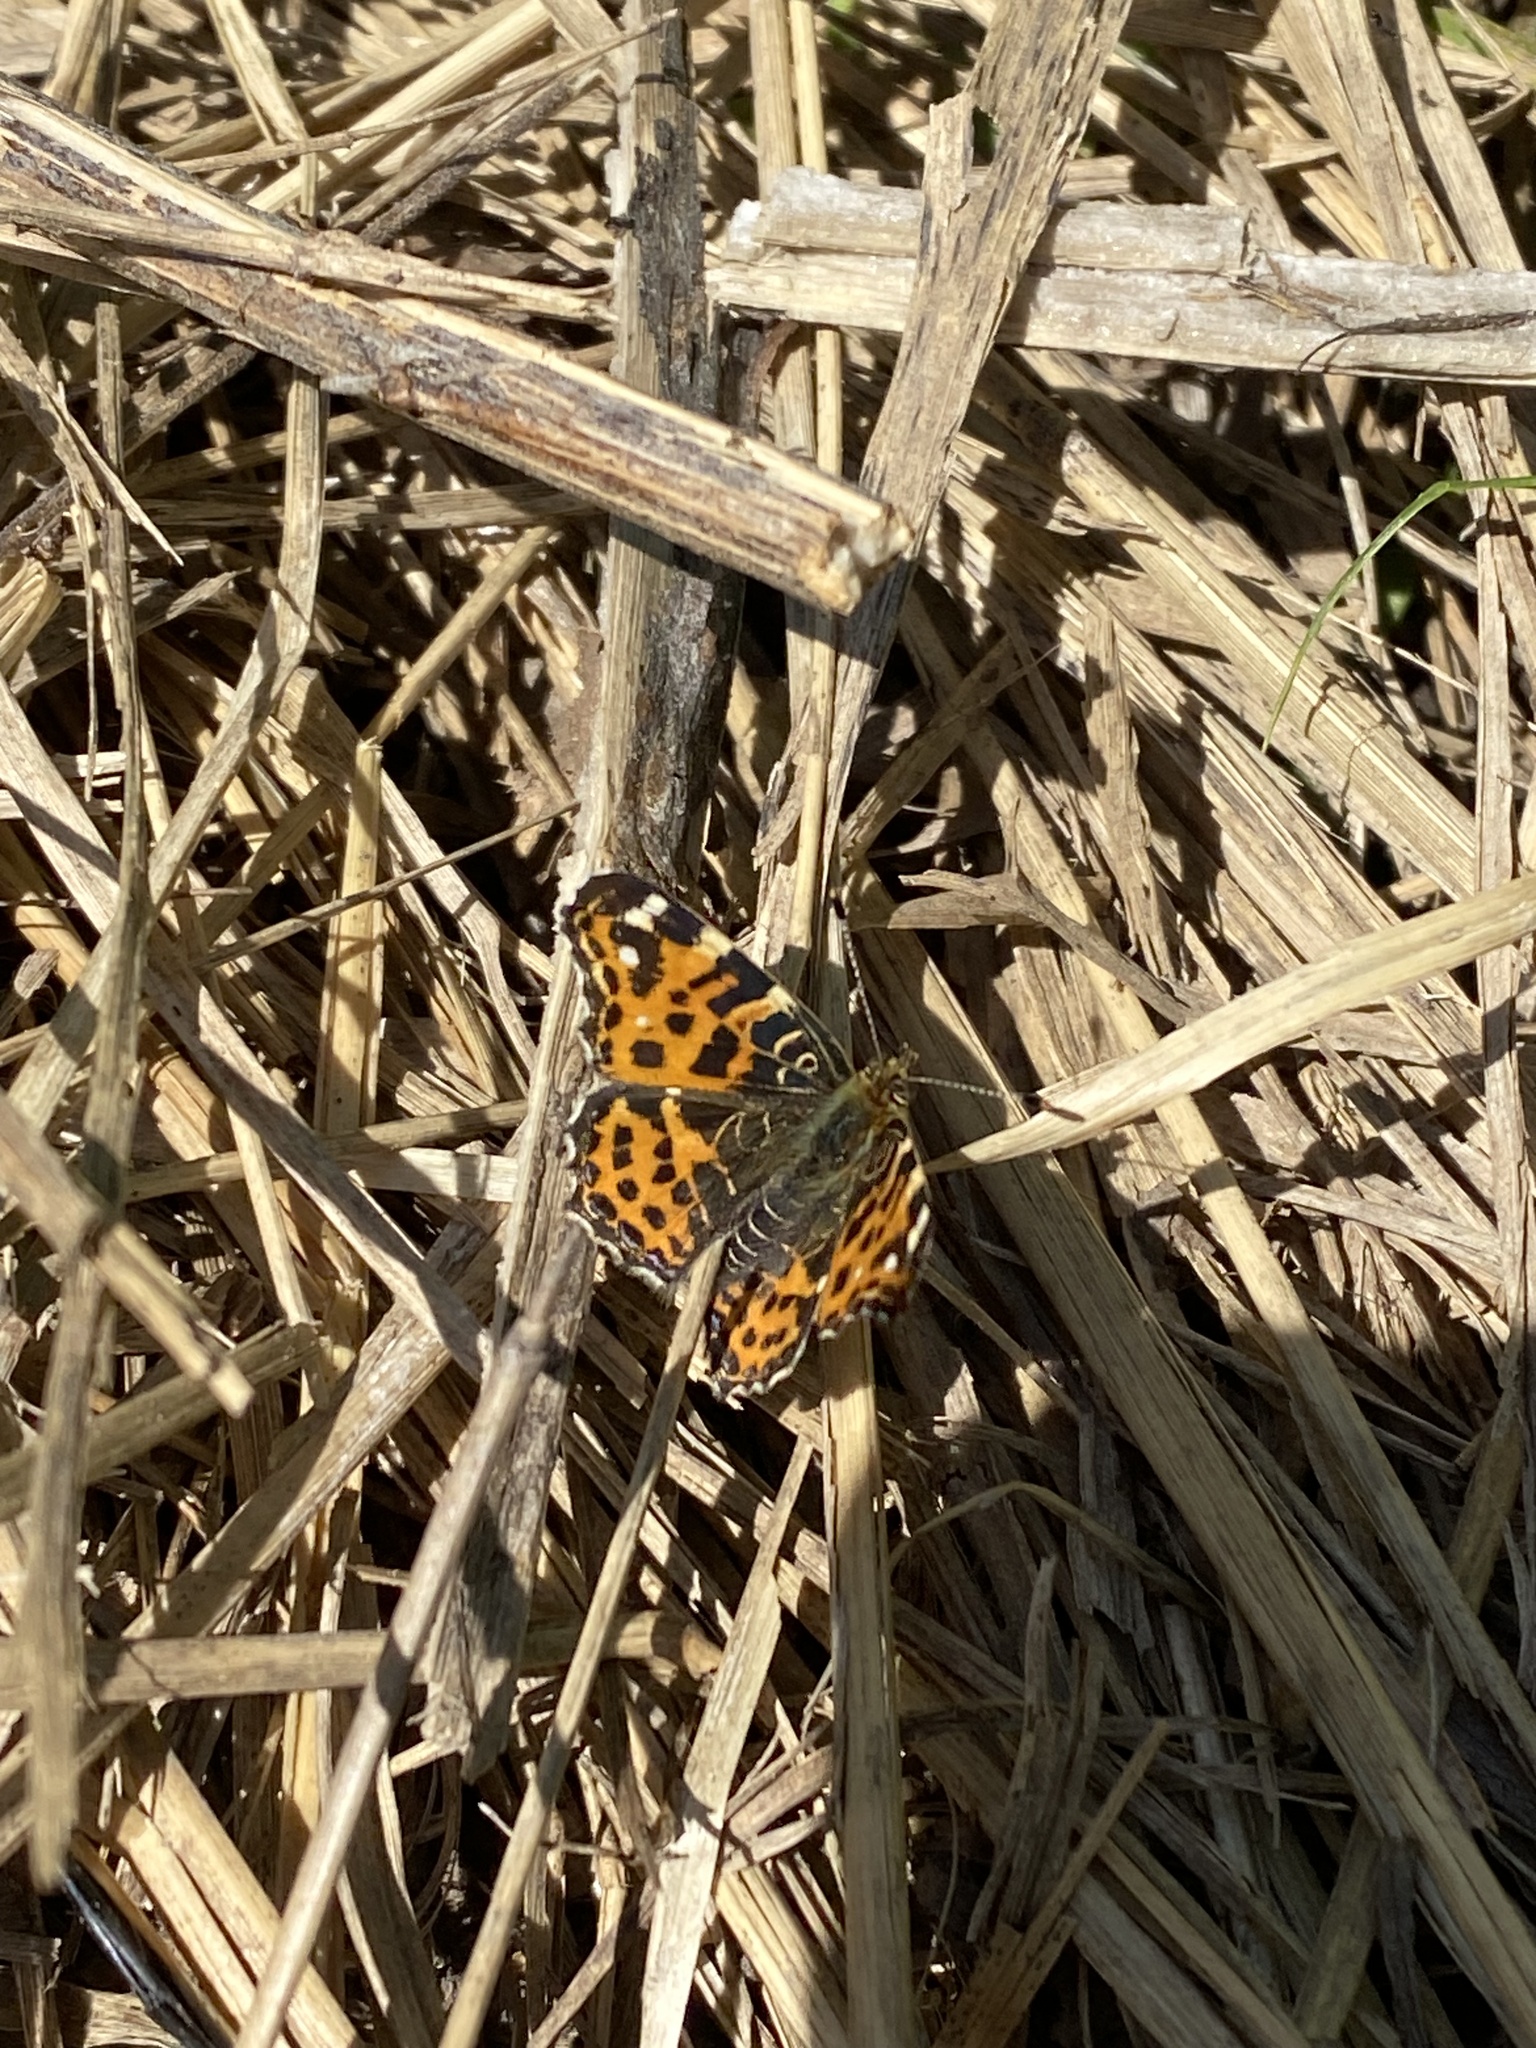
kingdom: Animalia
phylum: Arthropoda
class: Insecta
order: Lepidoptera
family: Nymphalidae
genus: Araschnia
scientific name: Araschnia levana
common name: Map butterfly
